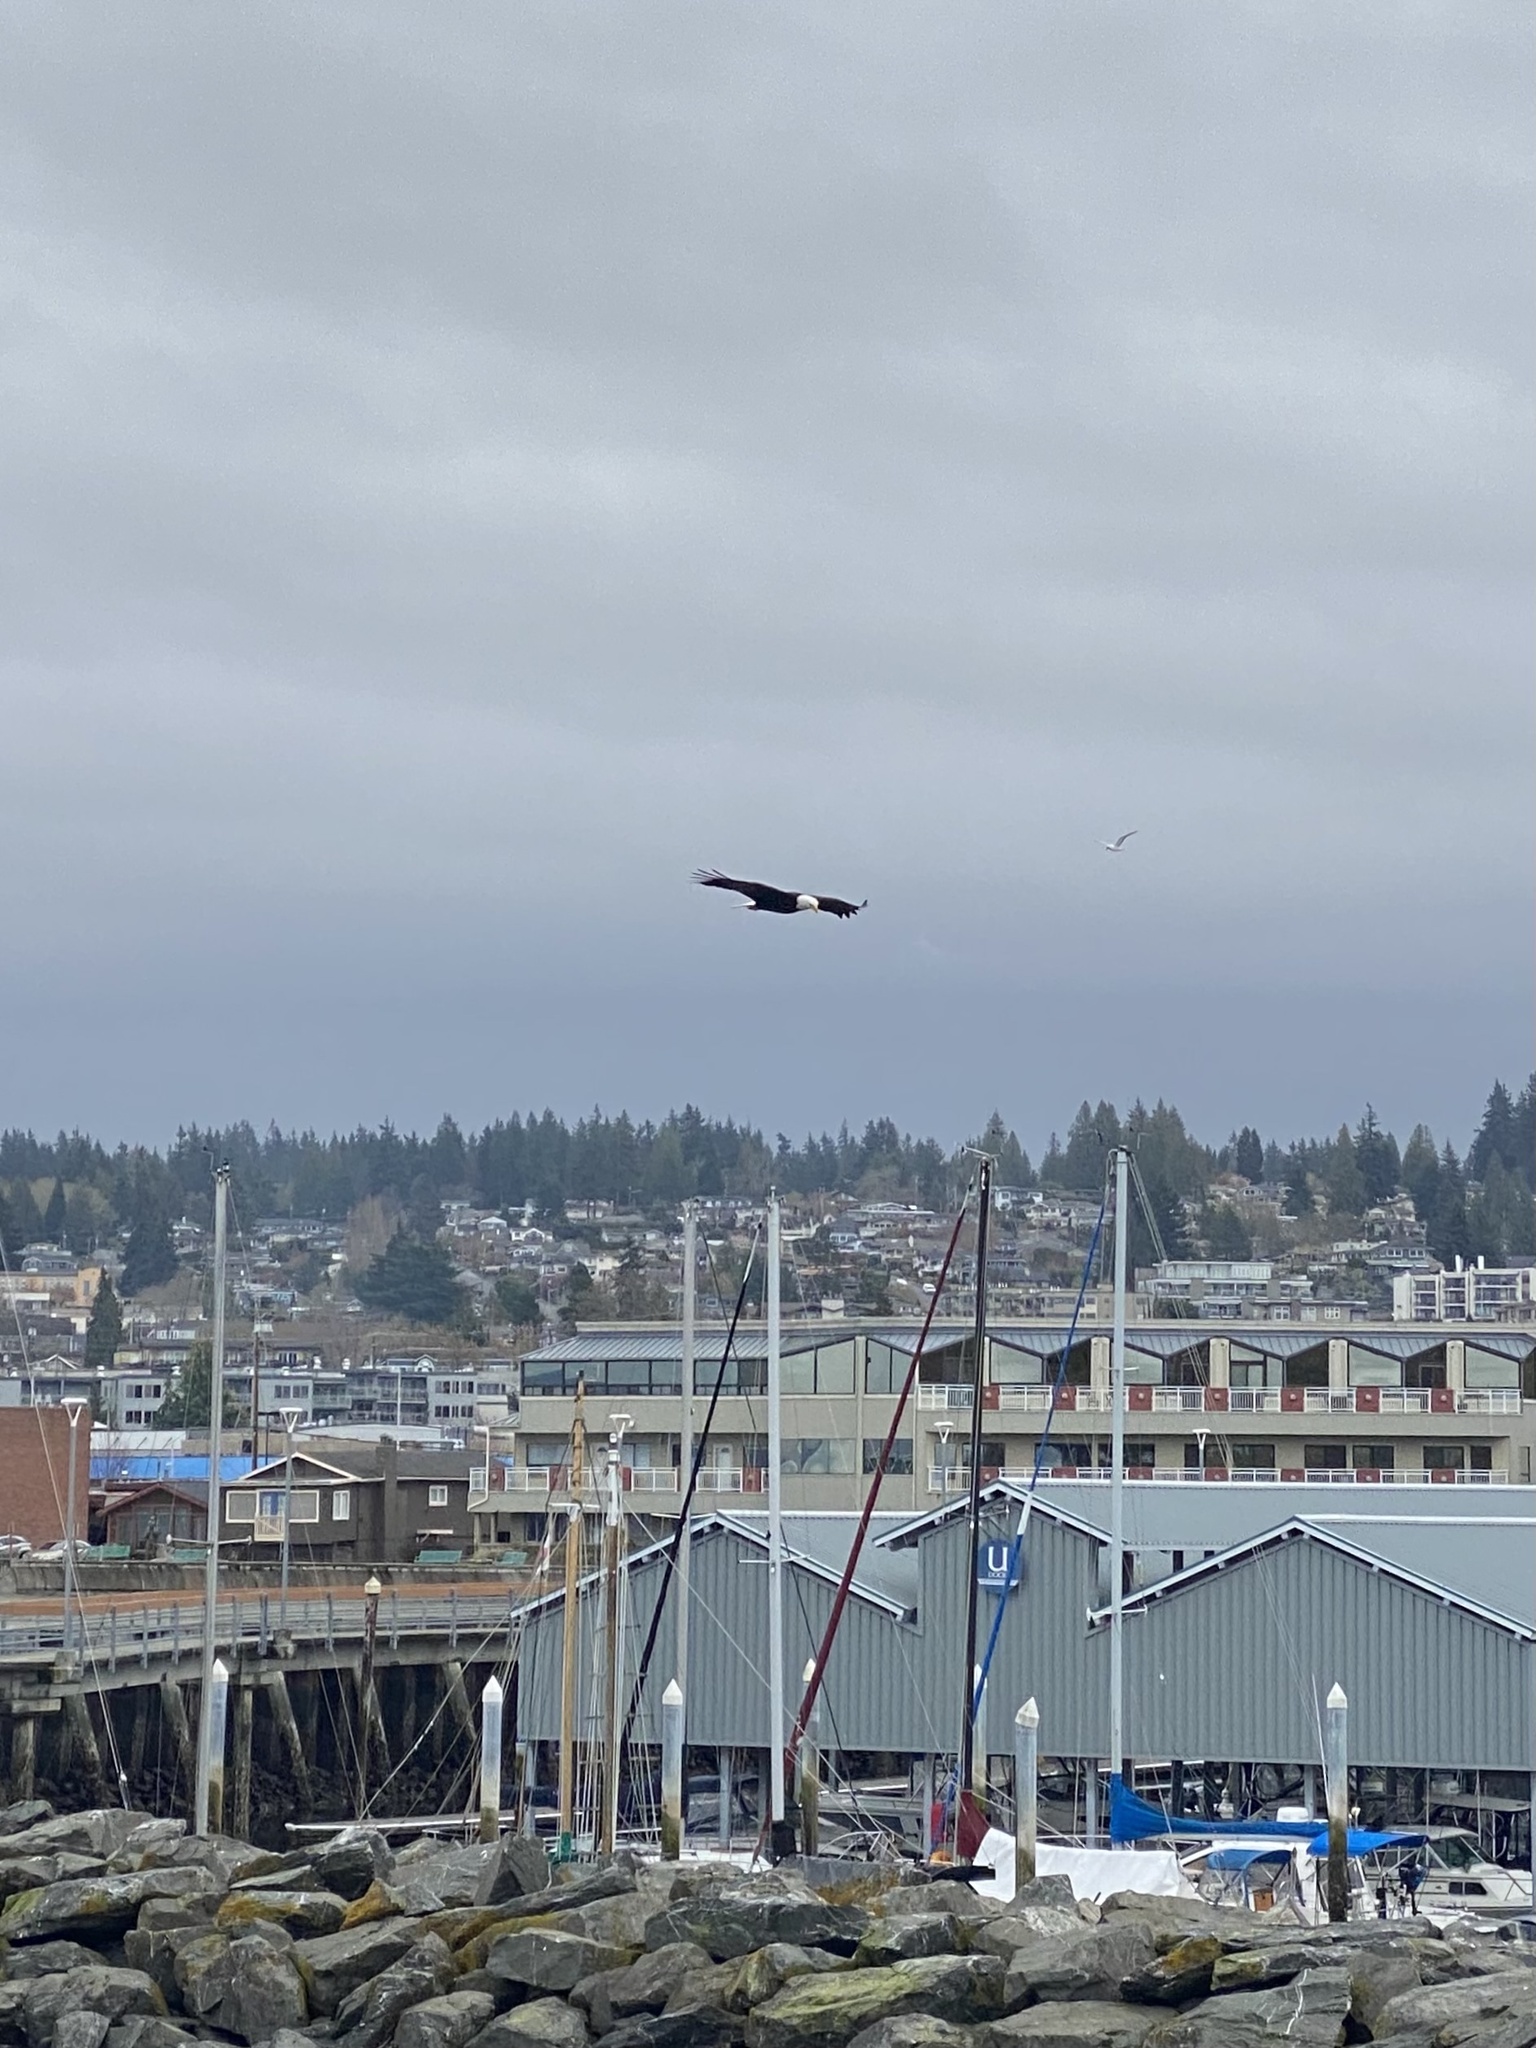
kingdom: Animalia
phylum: Chordata
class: Aves
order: Accipitriformes
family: Accipitridae
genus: Haliaeetus
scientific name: Haliaeetus leucocephalus
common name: Bald eagle
